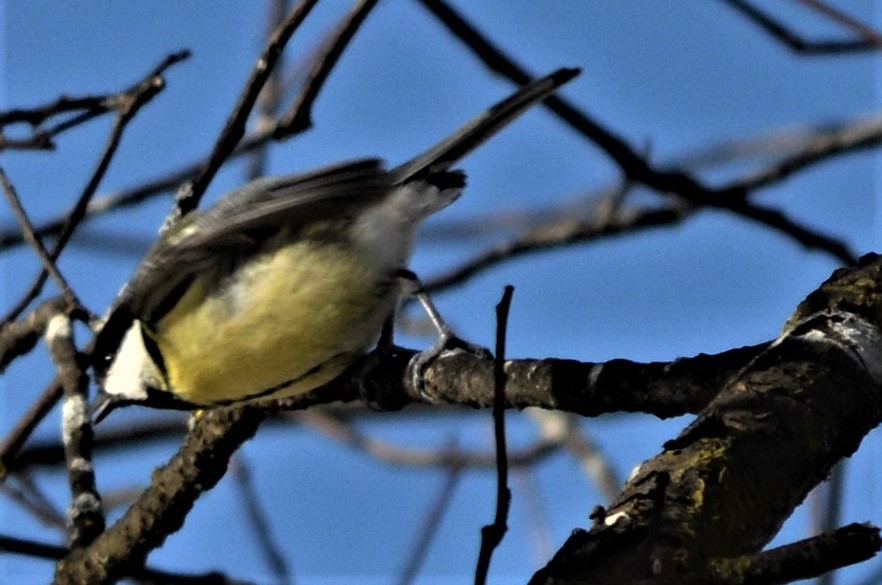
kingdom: Animalia
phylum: Chordata
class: Aves
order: Passeriformes
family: Paridae
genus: Parus
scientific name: Parus major
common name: Great tit
